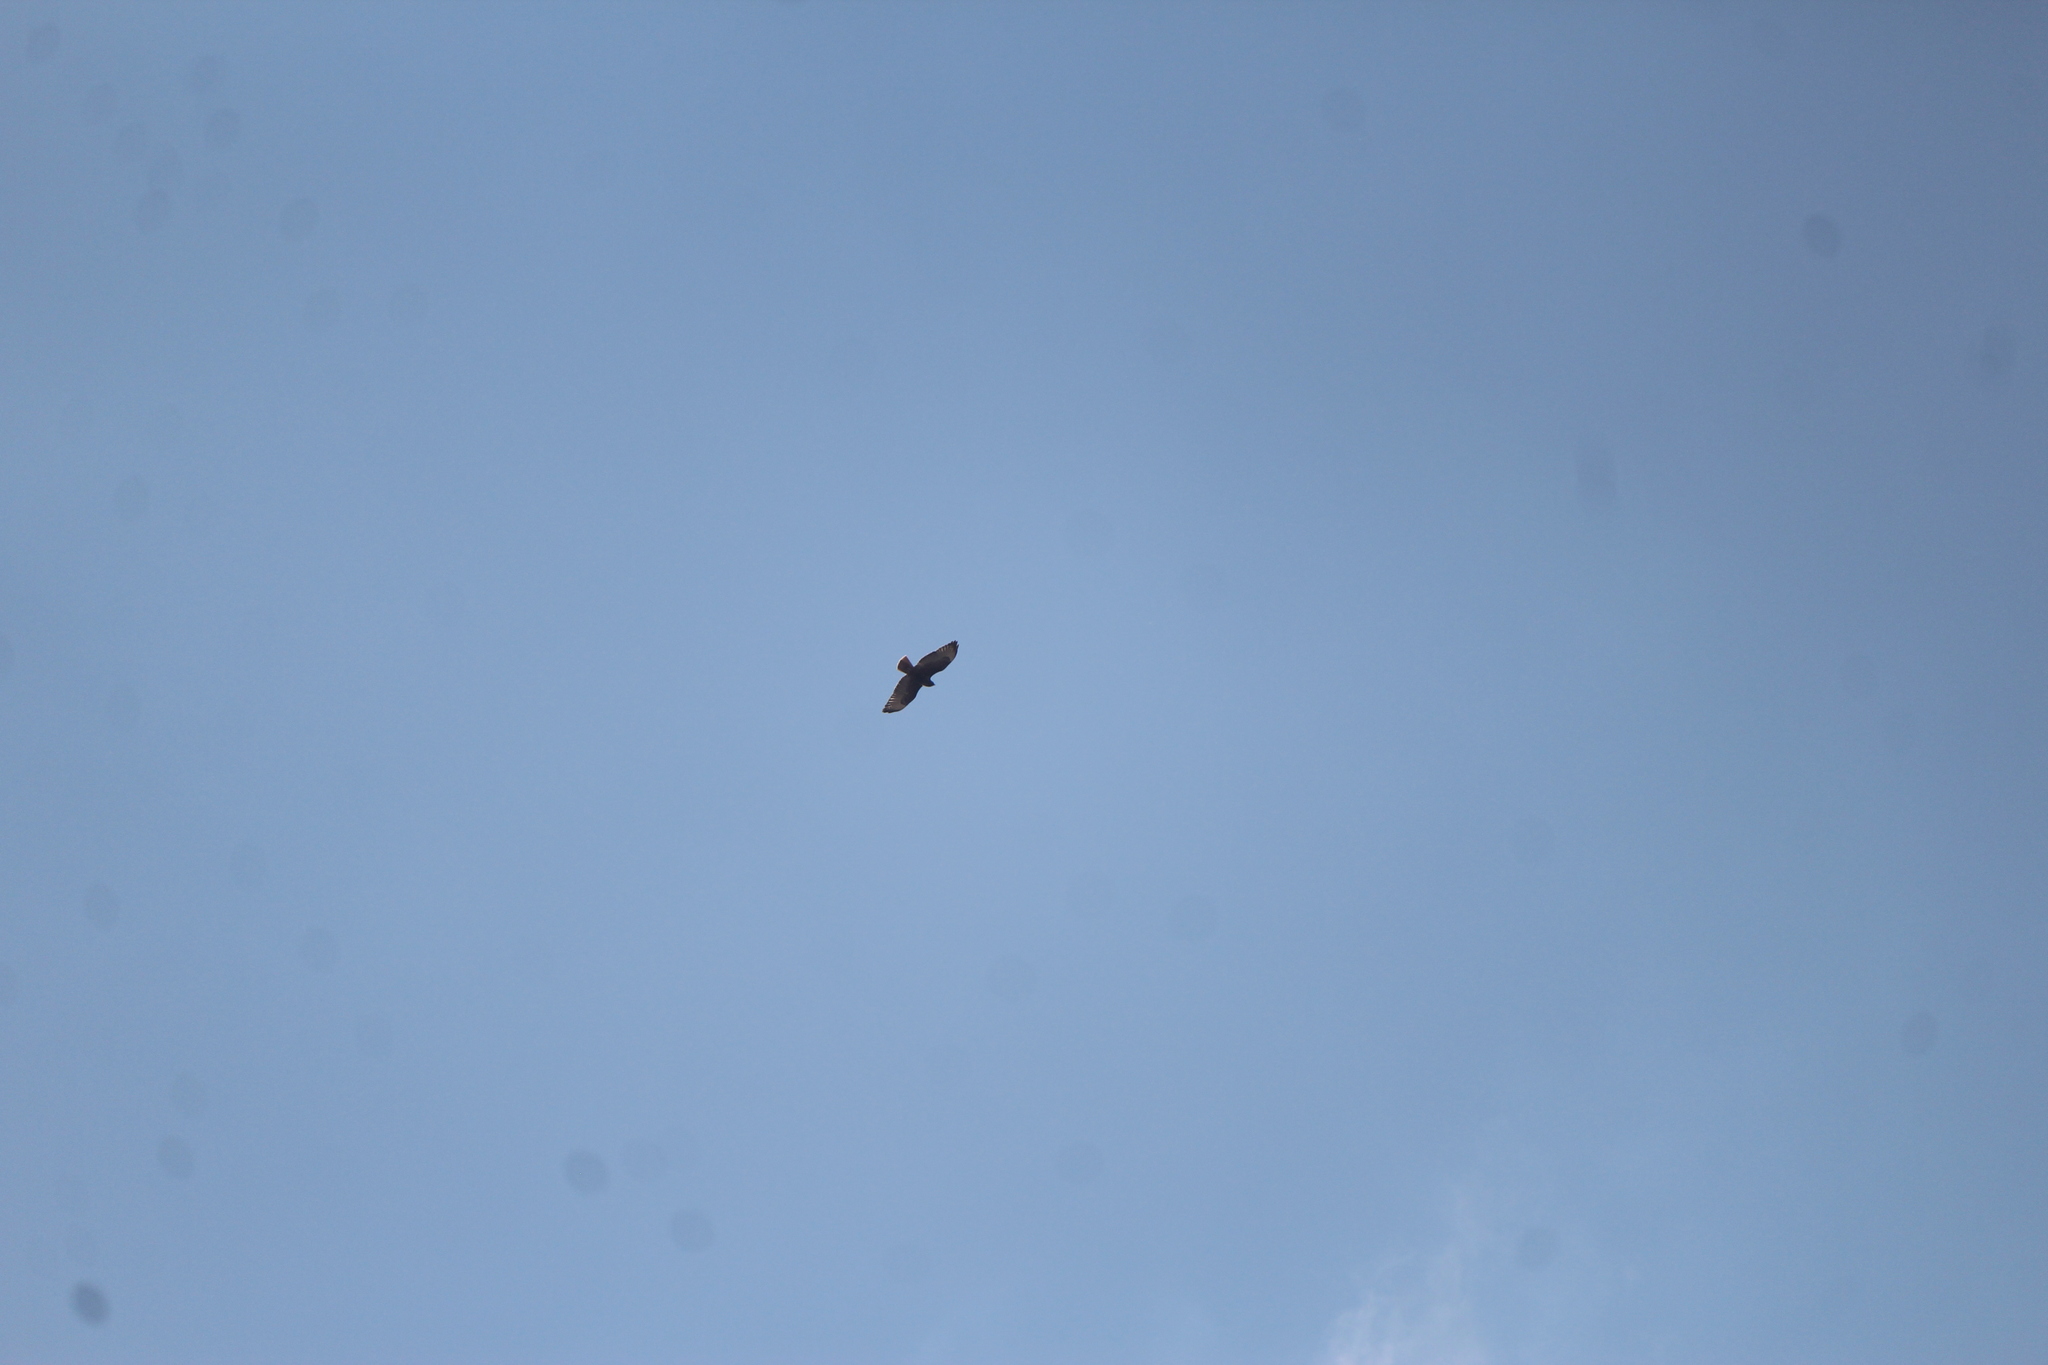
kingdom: Animalia
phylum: Chordata
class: Aves
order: Accipitriformes
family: Accipitridae
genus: Buteo
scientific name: Buteo jamaicensis
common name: Red-tailed hawk
